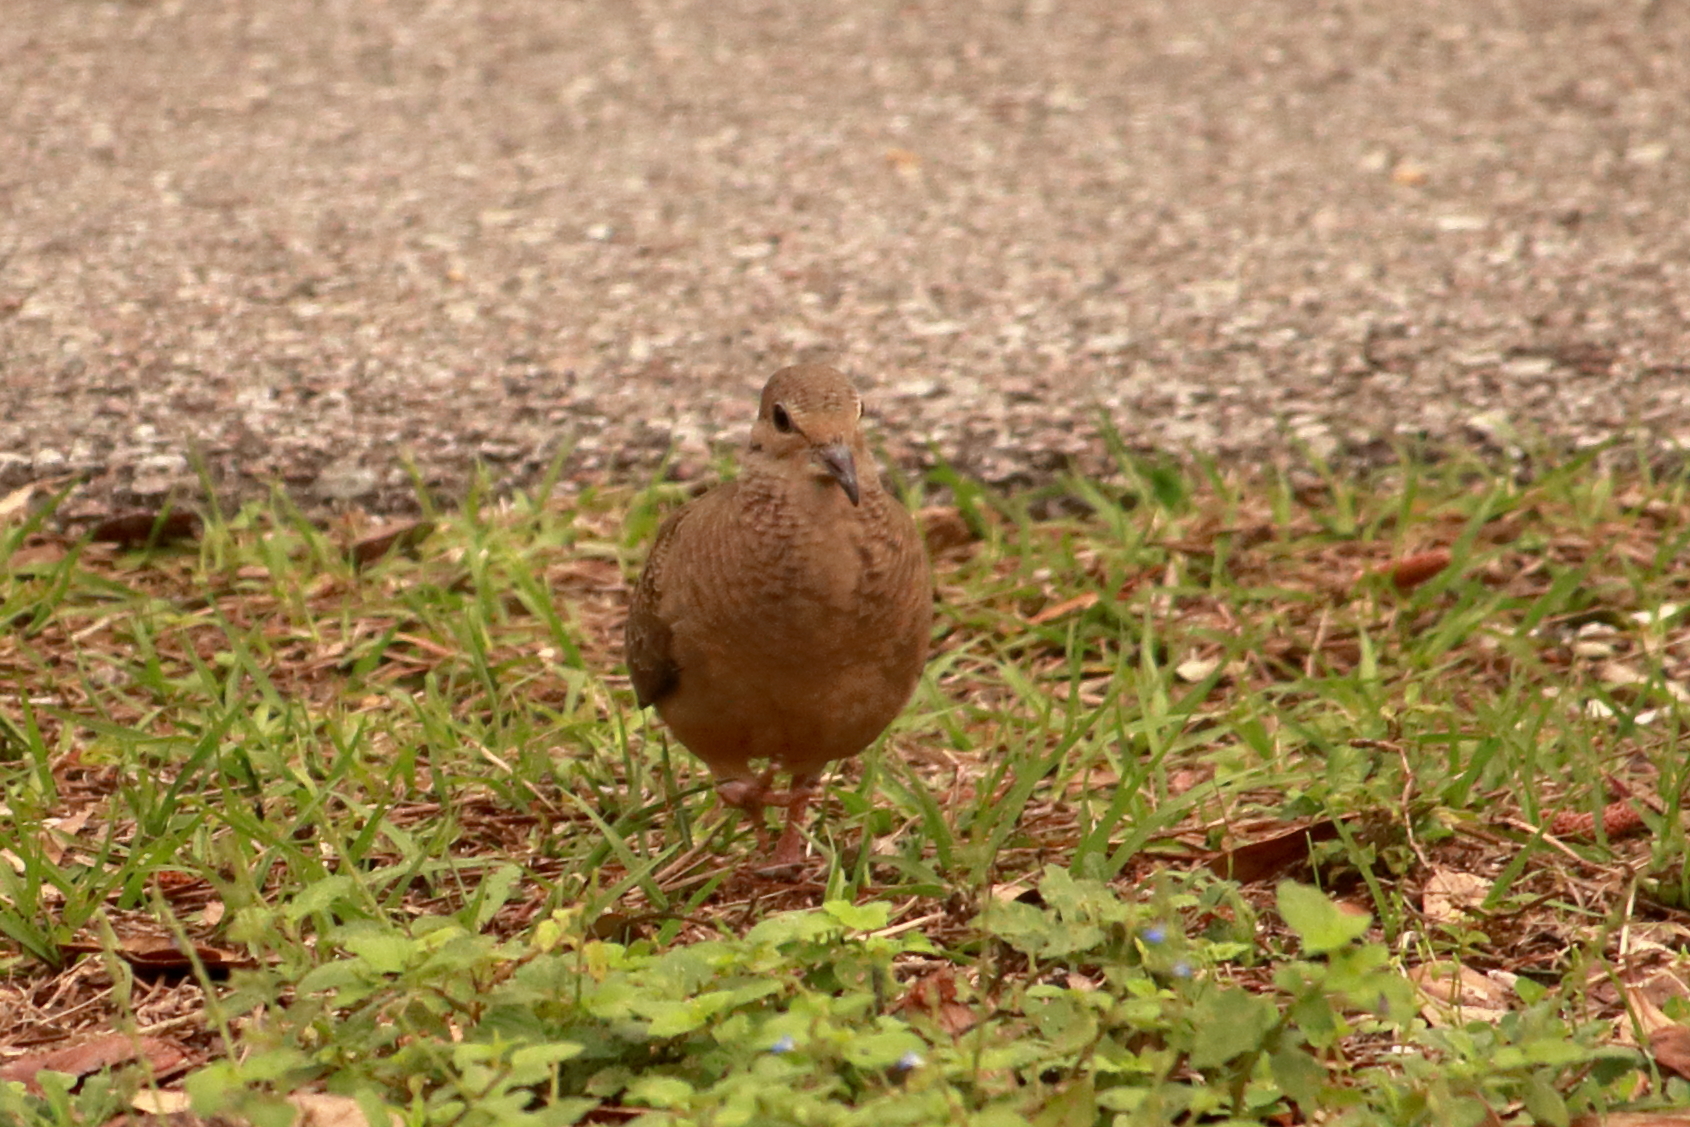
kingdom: Animalia
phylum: Chordata
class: Aves
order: Columbiformes
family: Columbidae
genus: Zenaida
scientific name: Zenaida macroura
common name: Mourning dove
